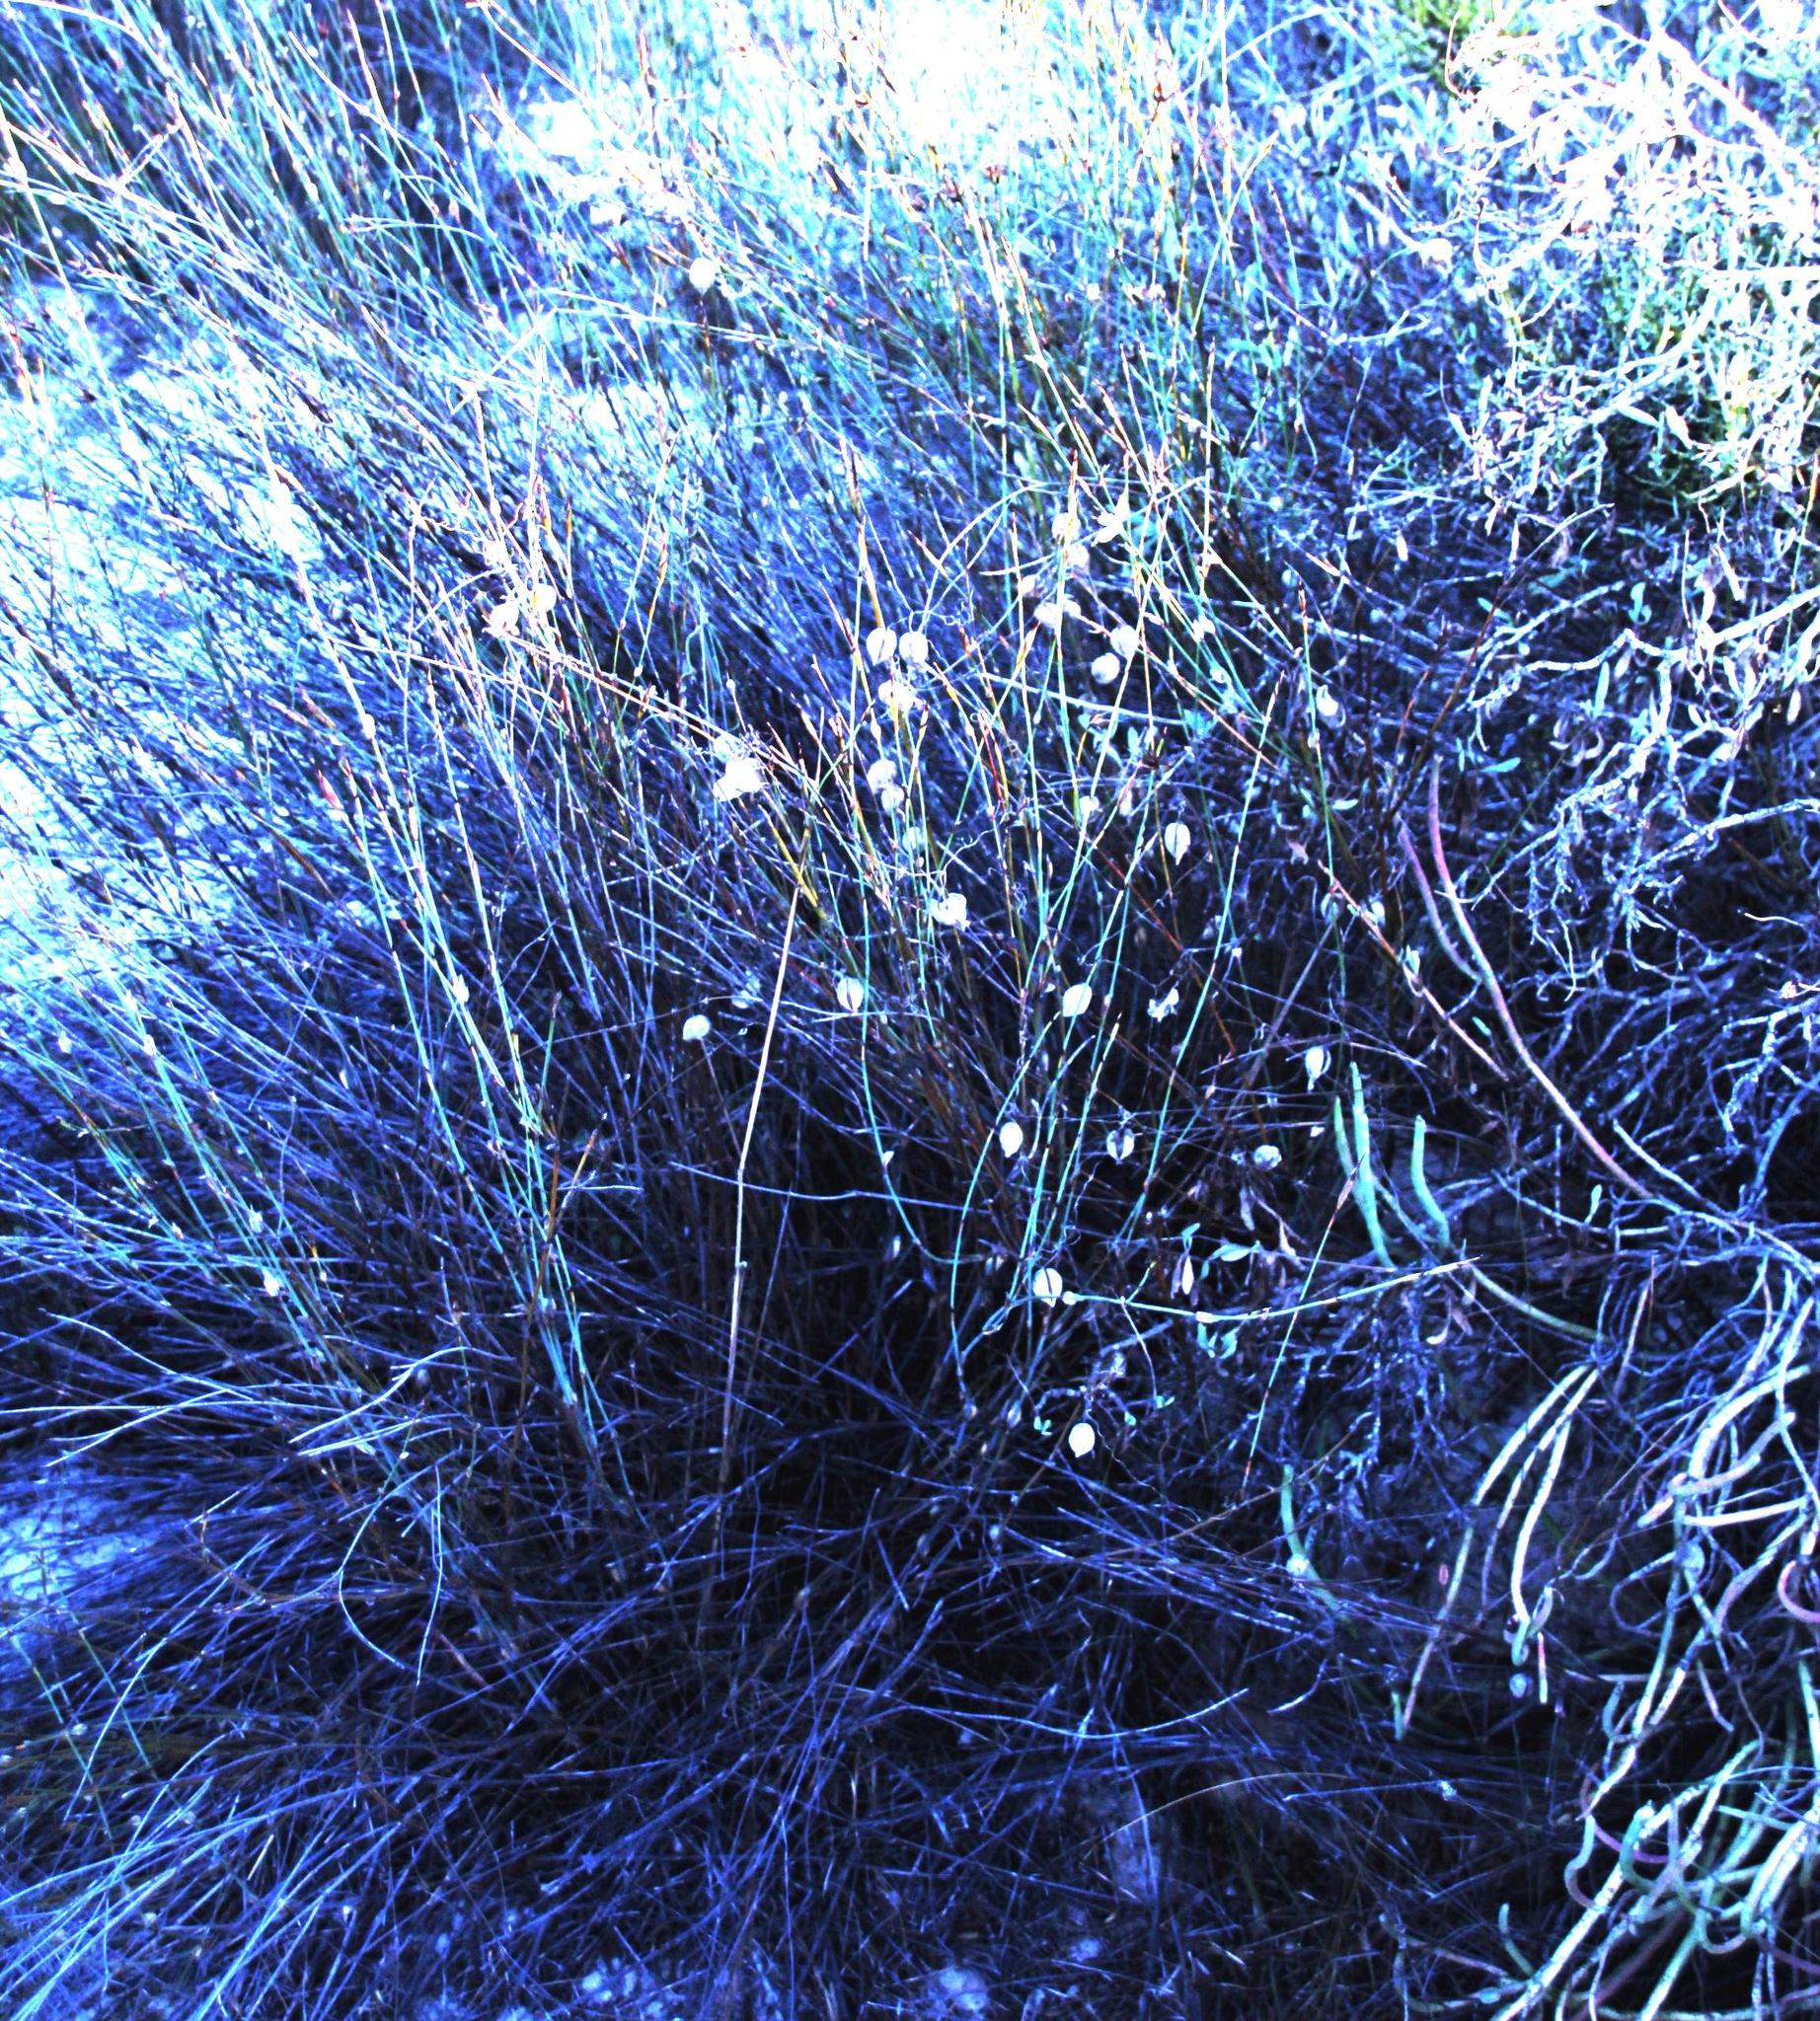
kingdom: Plantae
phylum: Tracheophyta
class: Magnoliopsida
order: Ranunculales
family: Papaveraceae
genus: Cysticapnos
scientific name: Cysticapnos vesicaria
